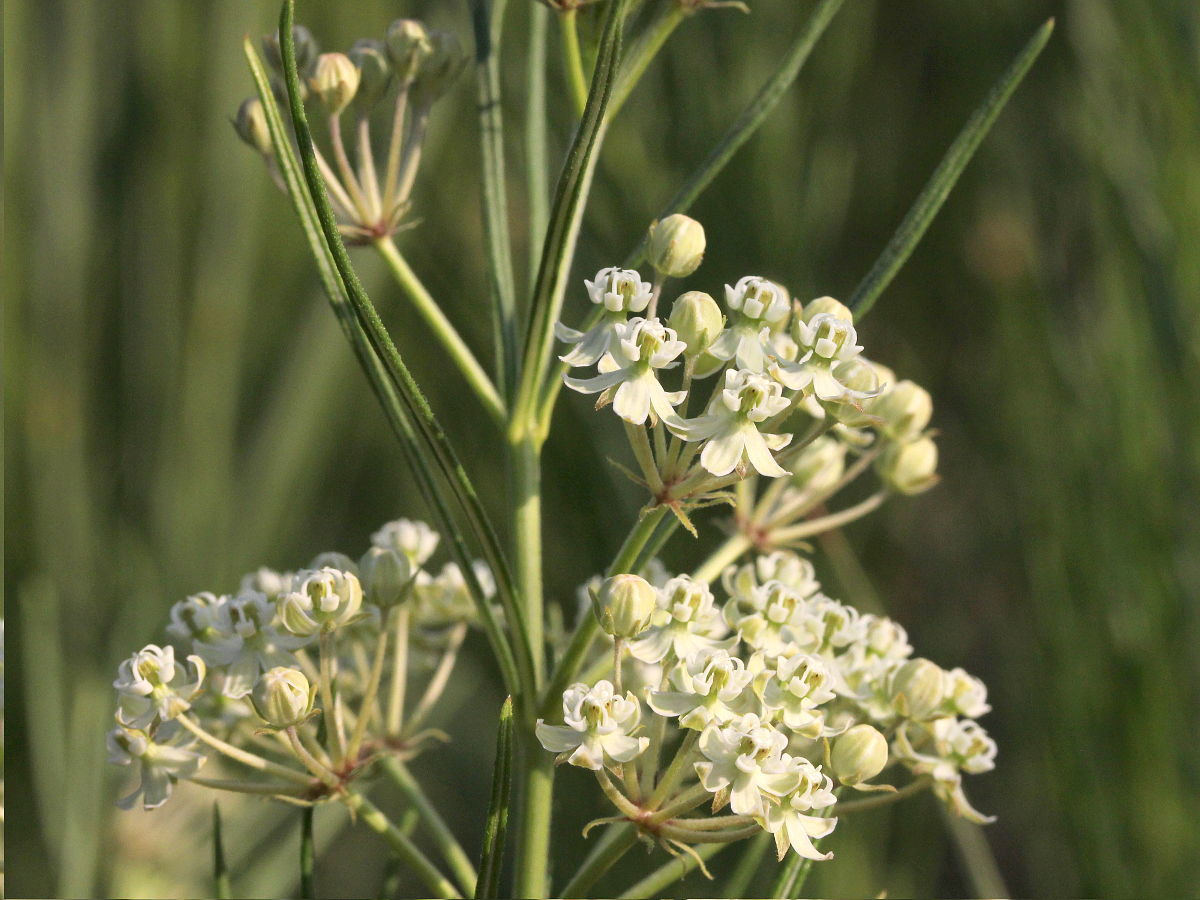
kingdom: Plantae
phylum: Tracheophyta
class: Magnoliopsida
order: Gentianales
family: Apocynaceae
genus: Asclepias
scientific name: Asclepias verticillata
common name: Eastern whorled milkweed
